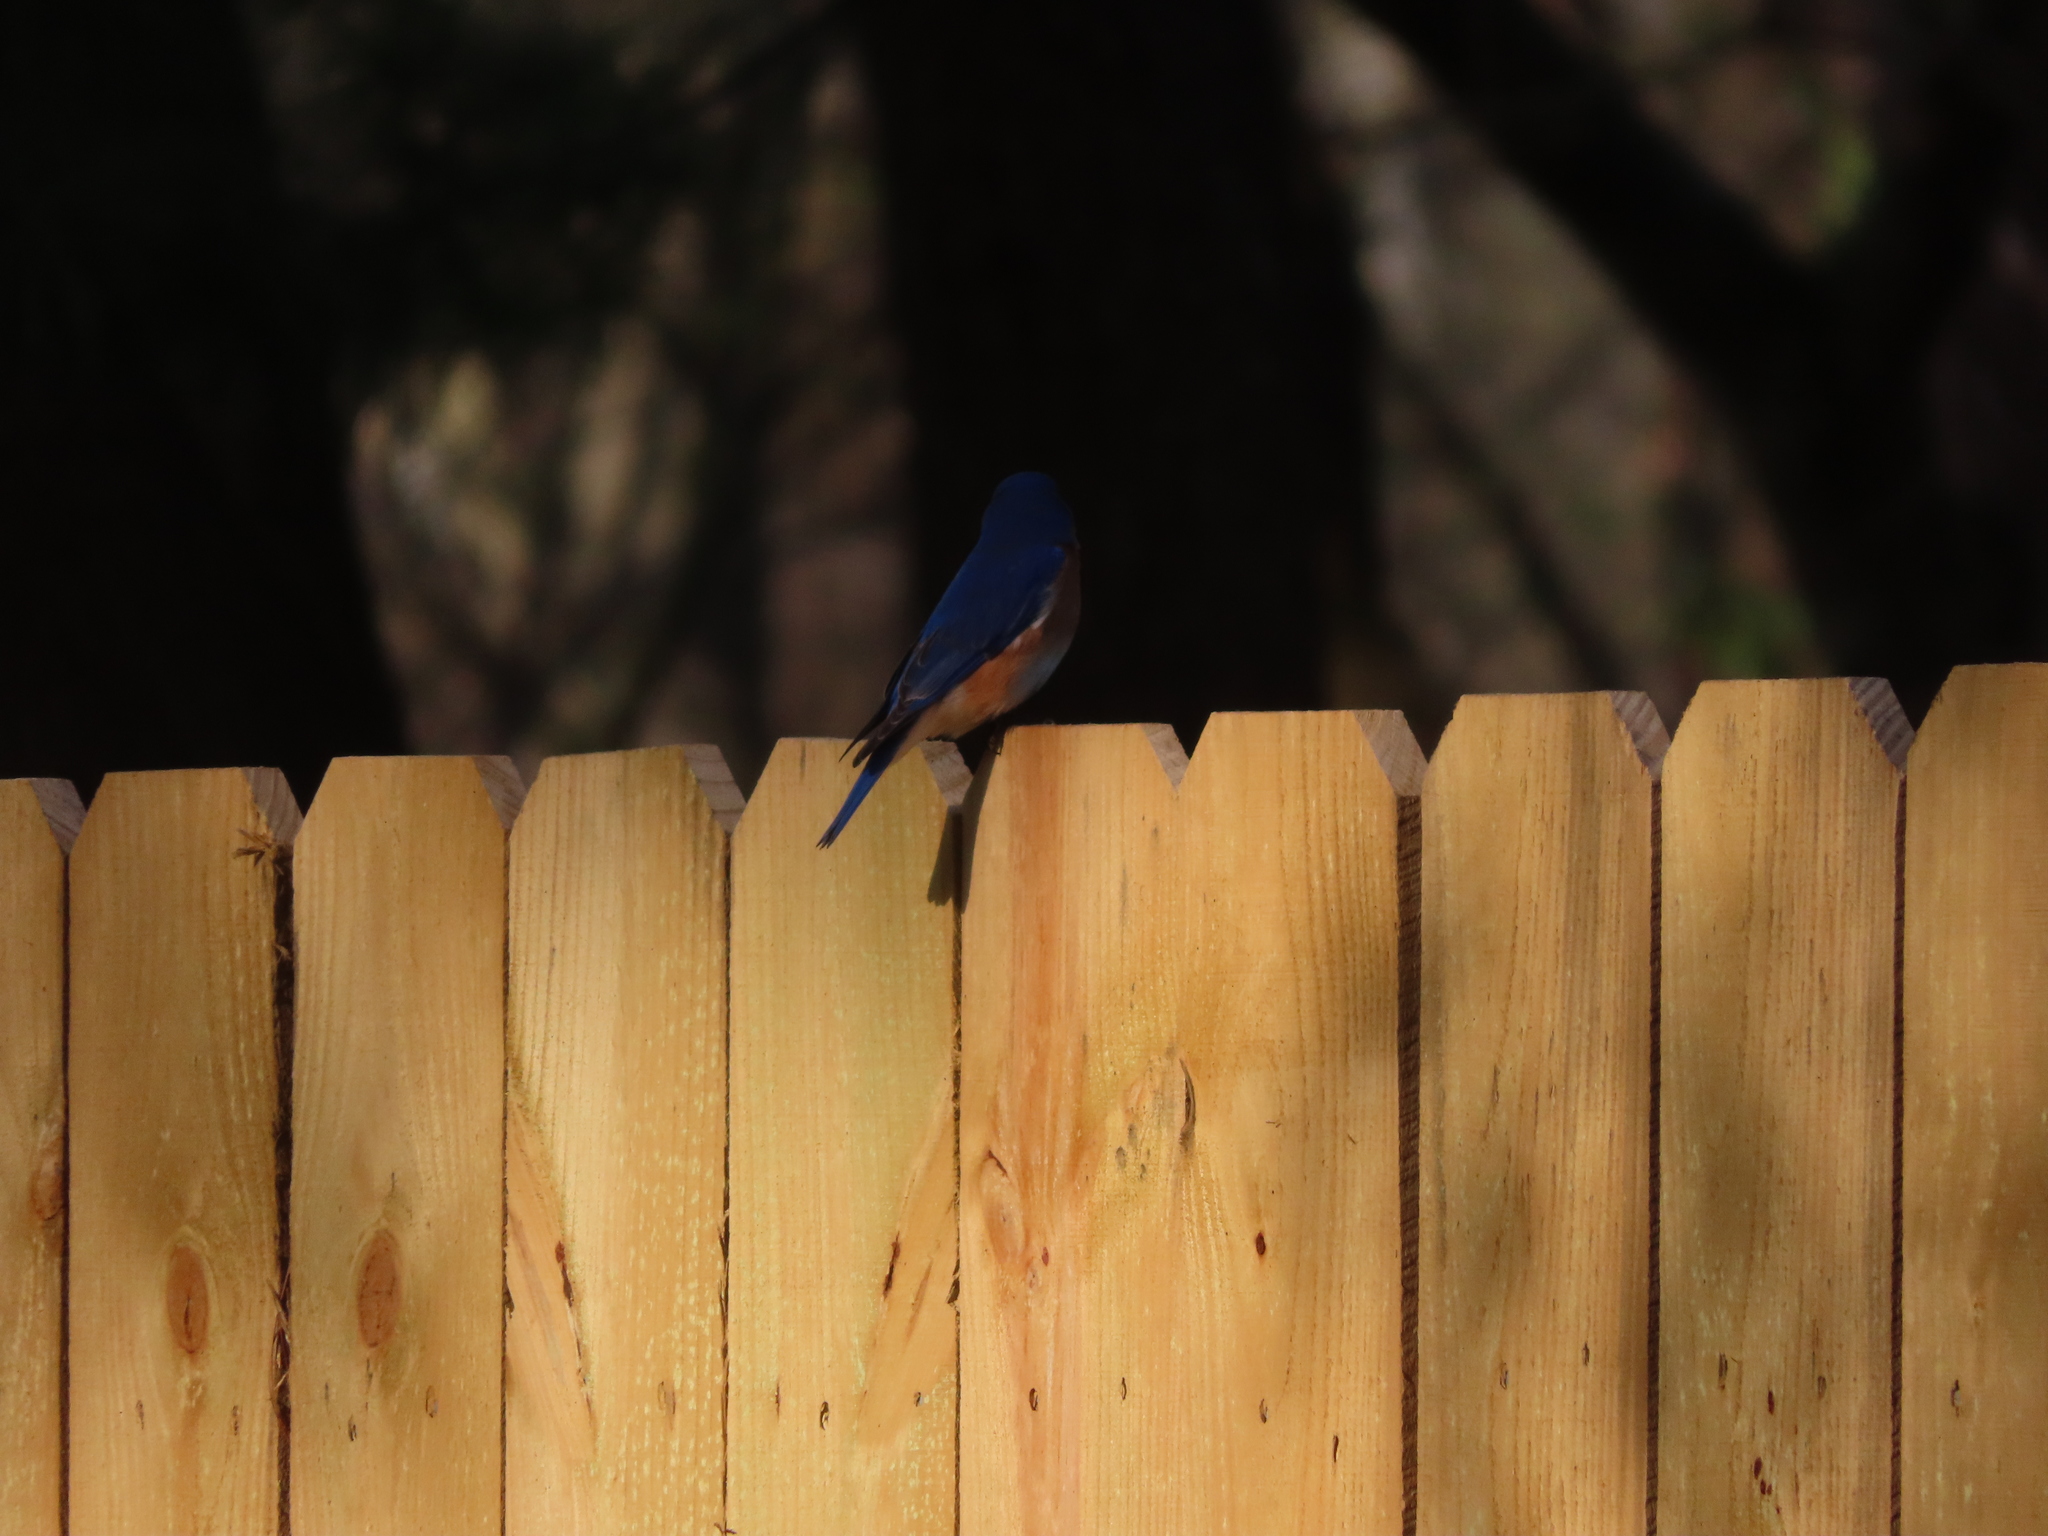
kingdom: Animalia
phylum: Chordata
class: Aves
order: Passeriformes
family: Turdidae
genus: Sialia
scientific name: Sialia sialis
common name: Eastern bluebird
